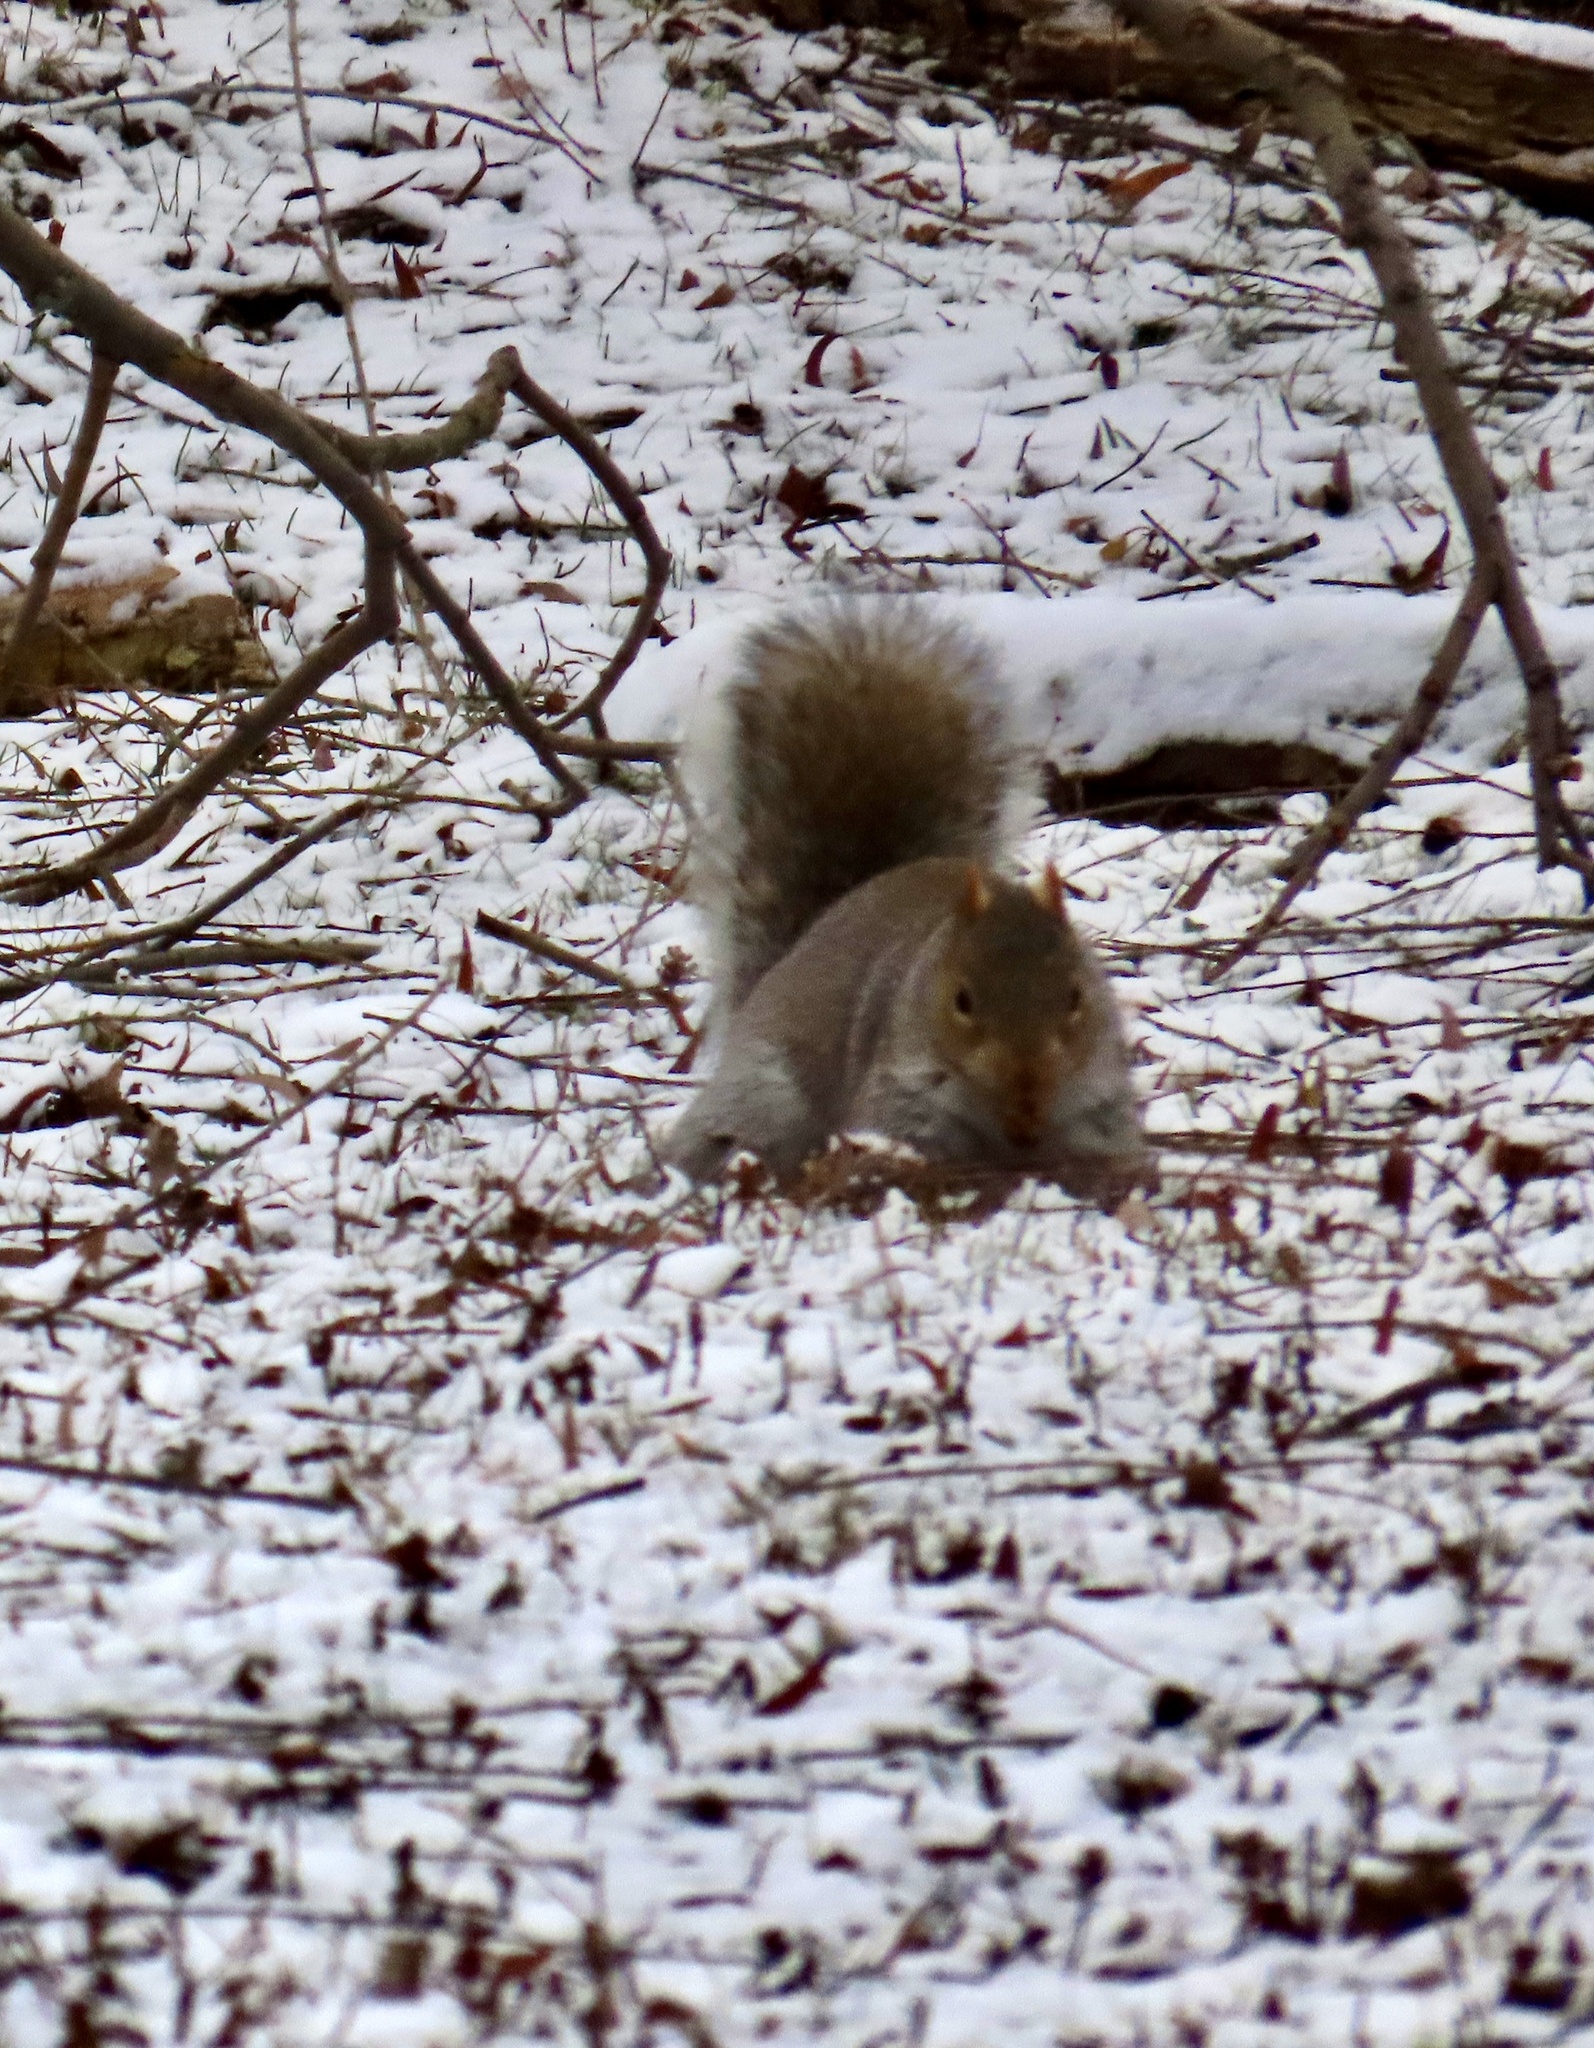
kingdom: Animalia
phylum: Chordata
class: Mammalia
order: Rodentia
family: Sciuridae
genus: Sciurus
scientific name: Sciurus carolinensis
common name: Eastern gray squirrel
